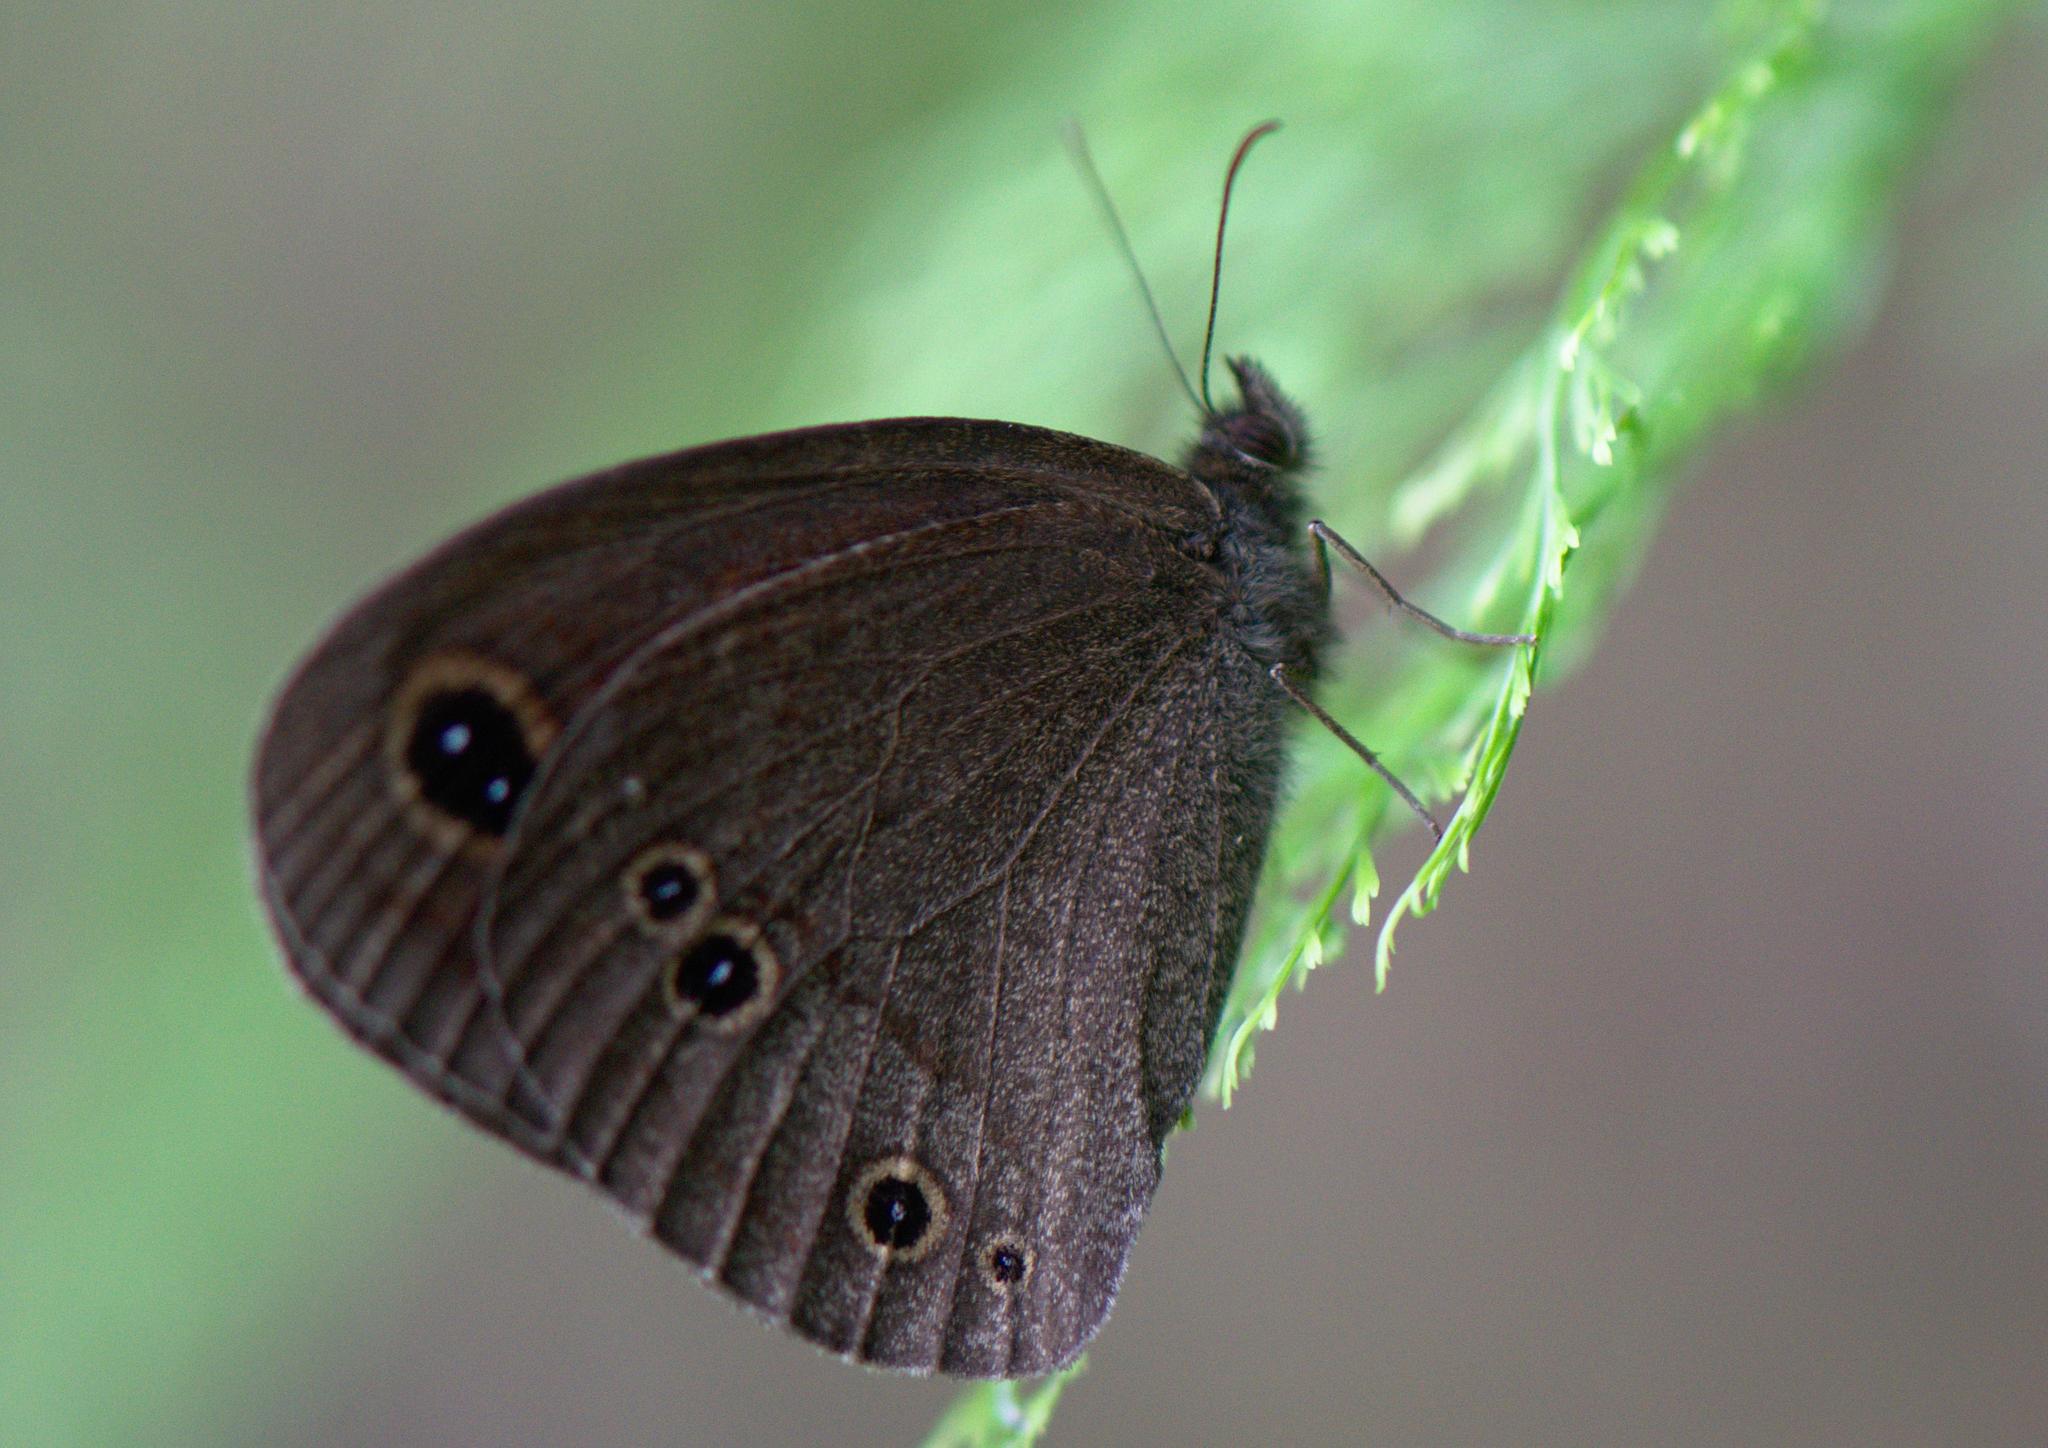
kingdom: Animalia
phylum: Arthropoda
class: Insecta
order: Lepidoptera
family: Nymphalidae
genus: Callerebia
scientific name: Callerebia nirmala
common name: Common argus
